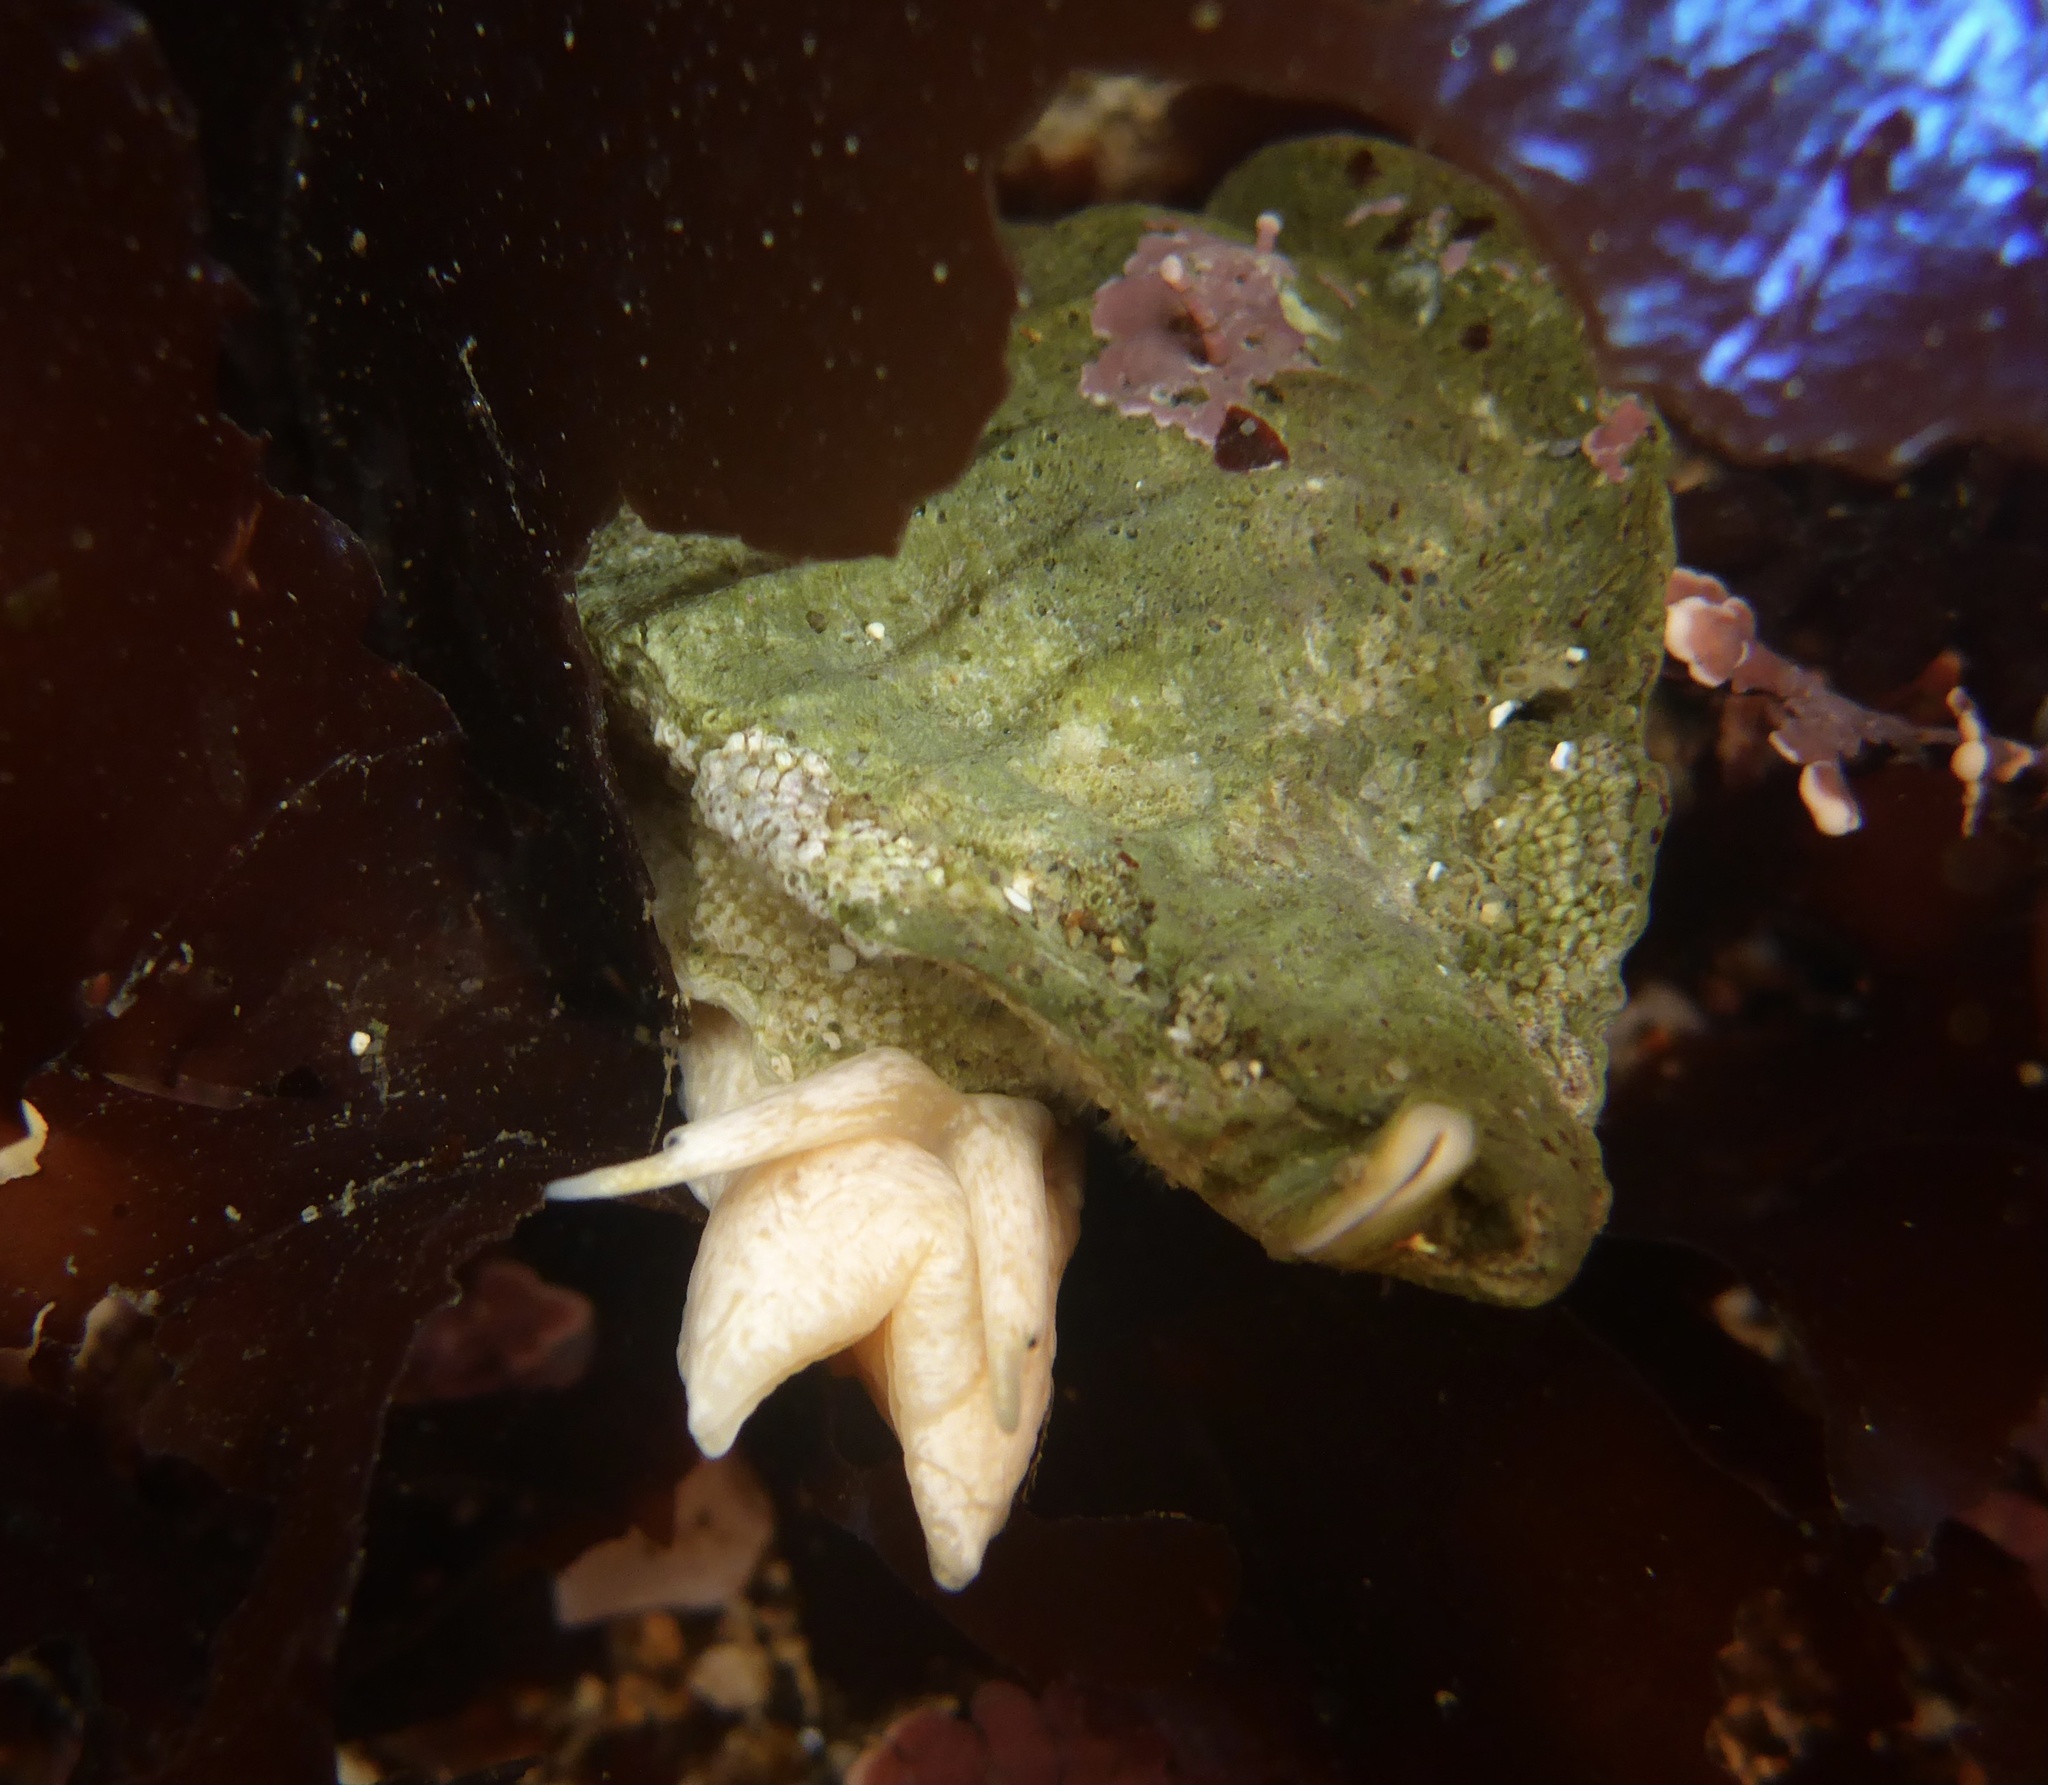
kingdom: Animalia
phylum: Mollusca
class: Gastropoda
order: Neogastropoda
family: Muricidae
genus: Ceratostoma
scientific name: Ceratostoma foliatum
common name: Foliate thorn purpura
